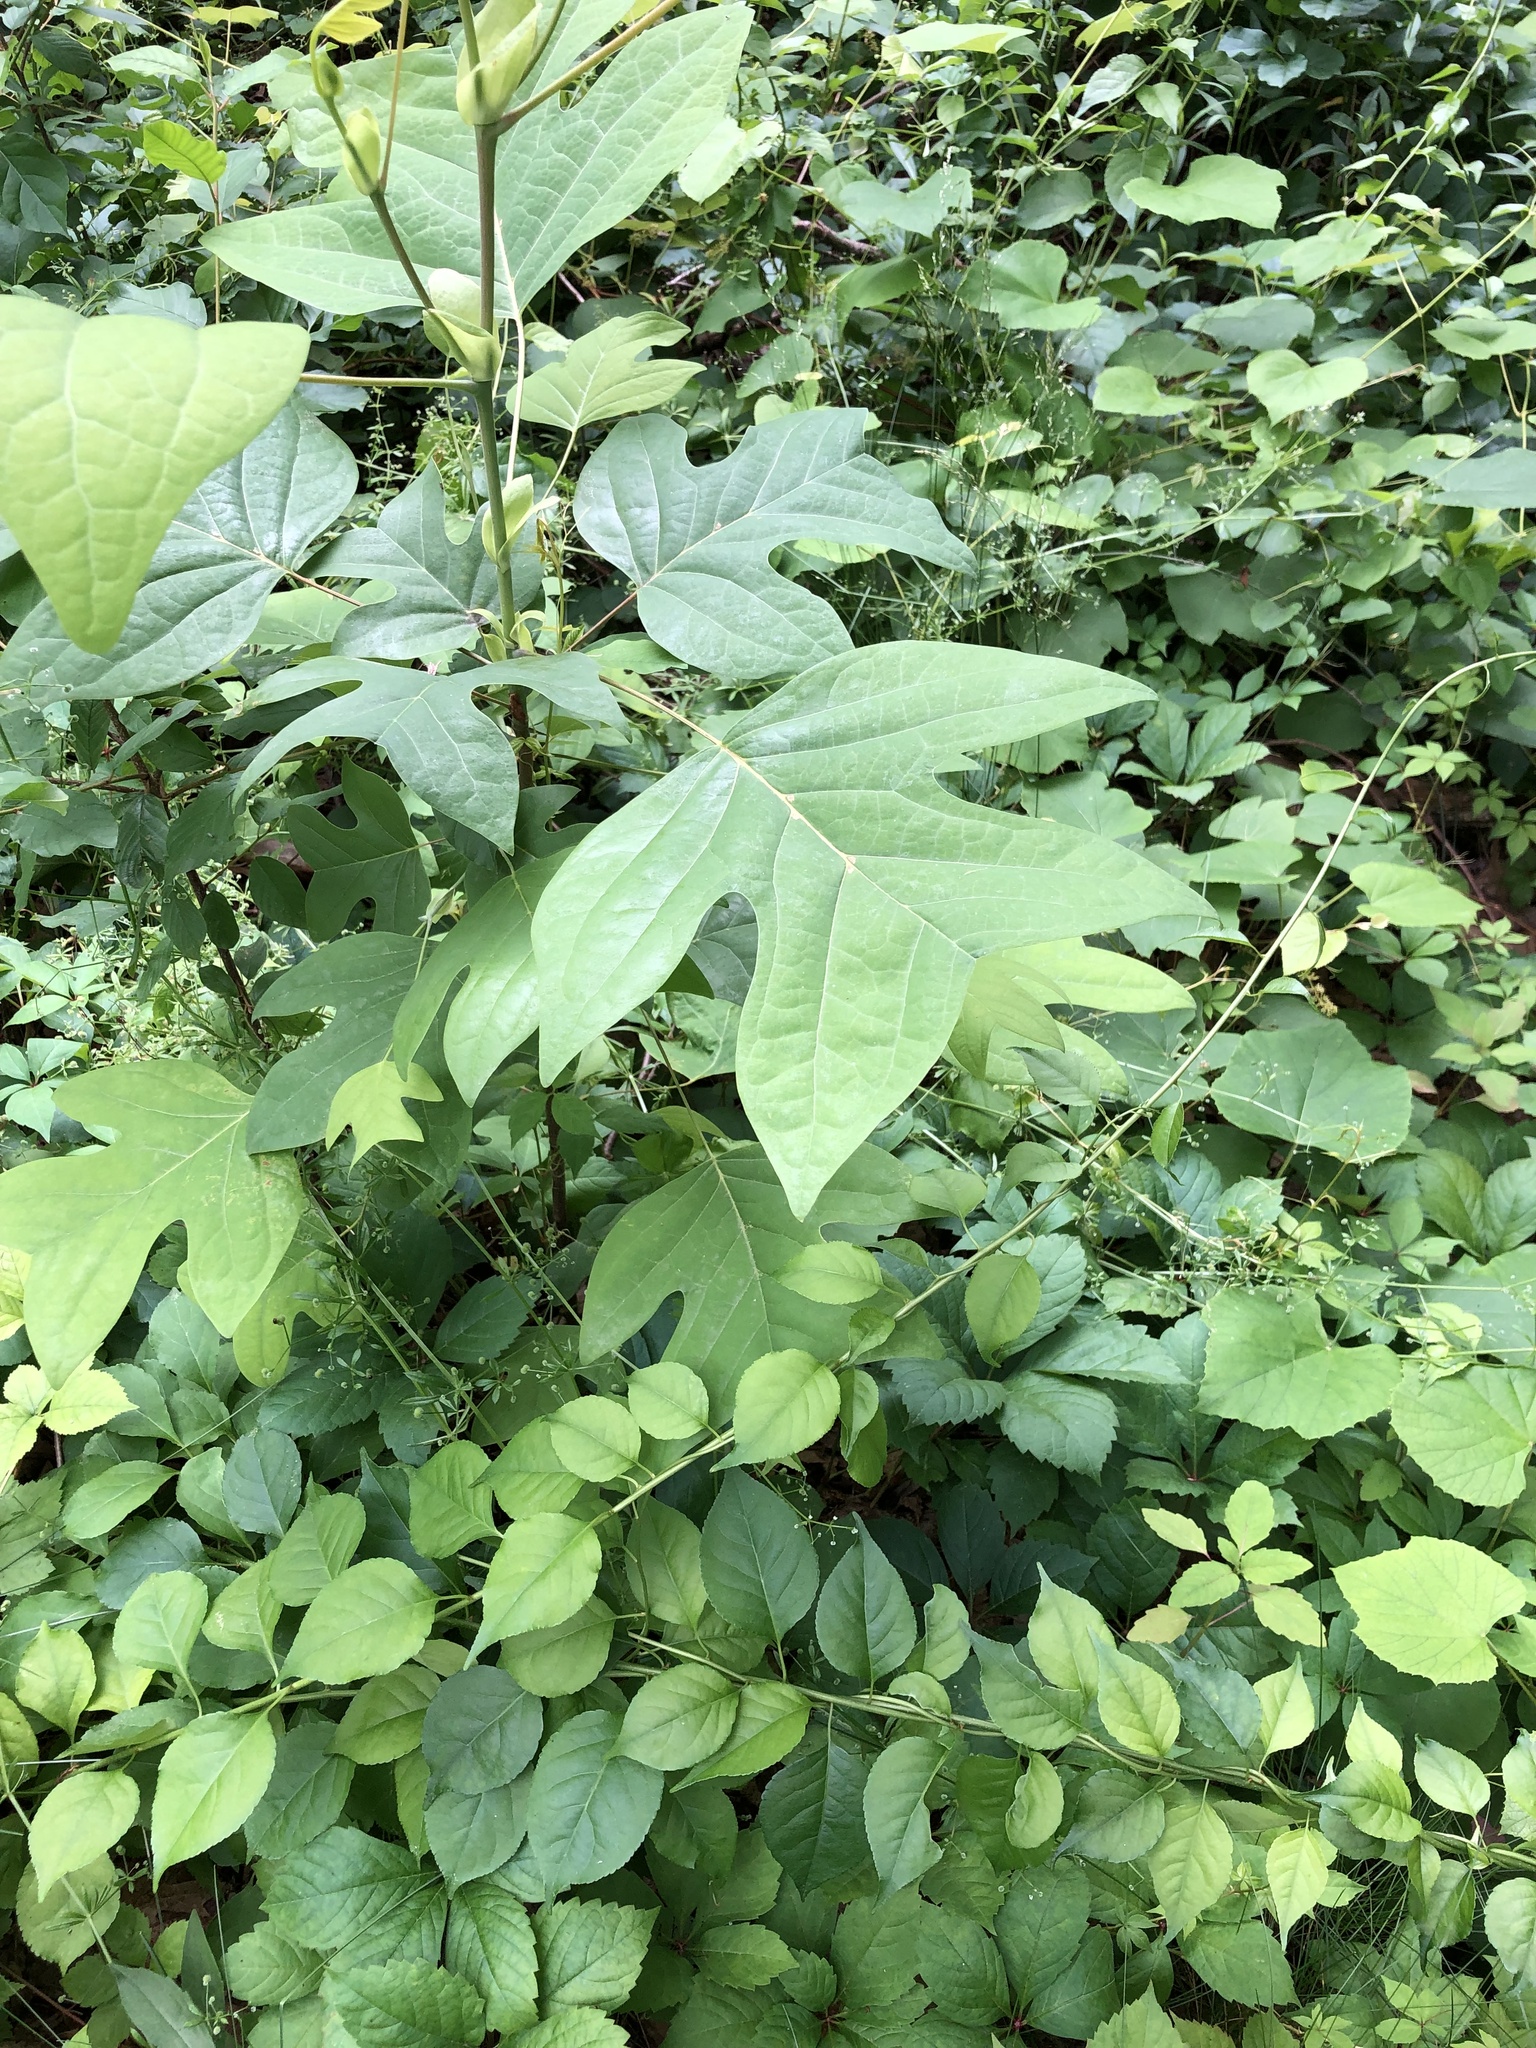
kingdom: Plantae
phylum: Tracheophyta
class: Magnoliopsida
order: Magnoliales
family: Magnoliaceae
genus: Liriodendron
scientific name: Liriodendron tulipifera
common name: Tulip tree
